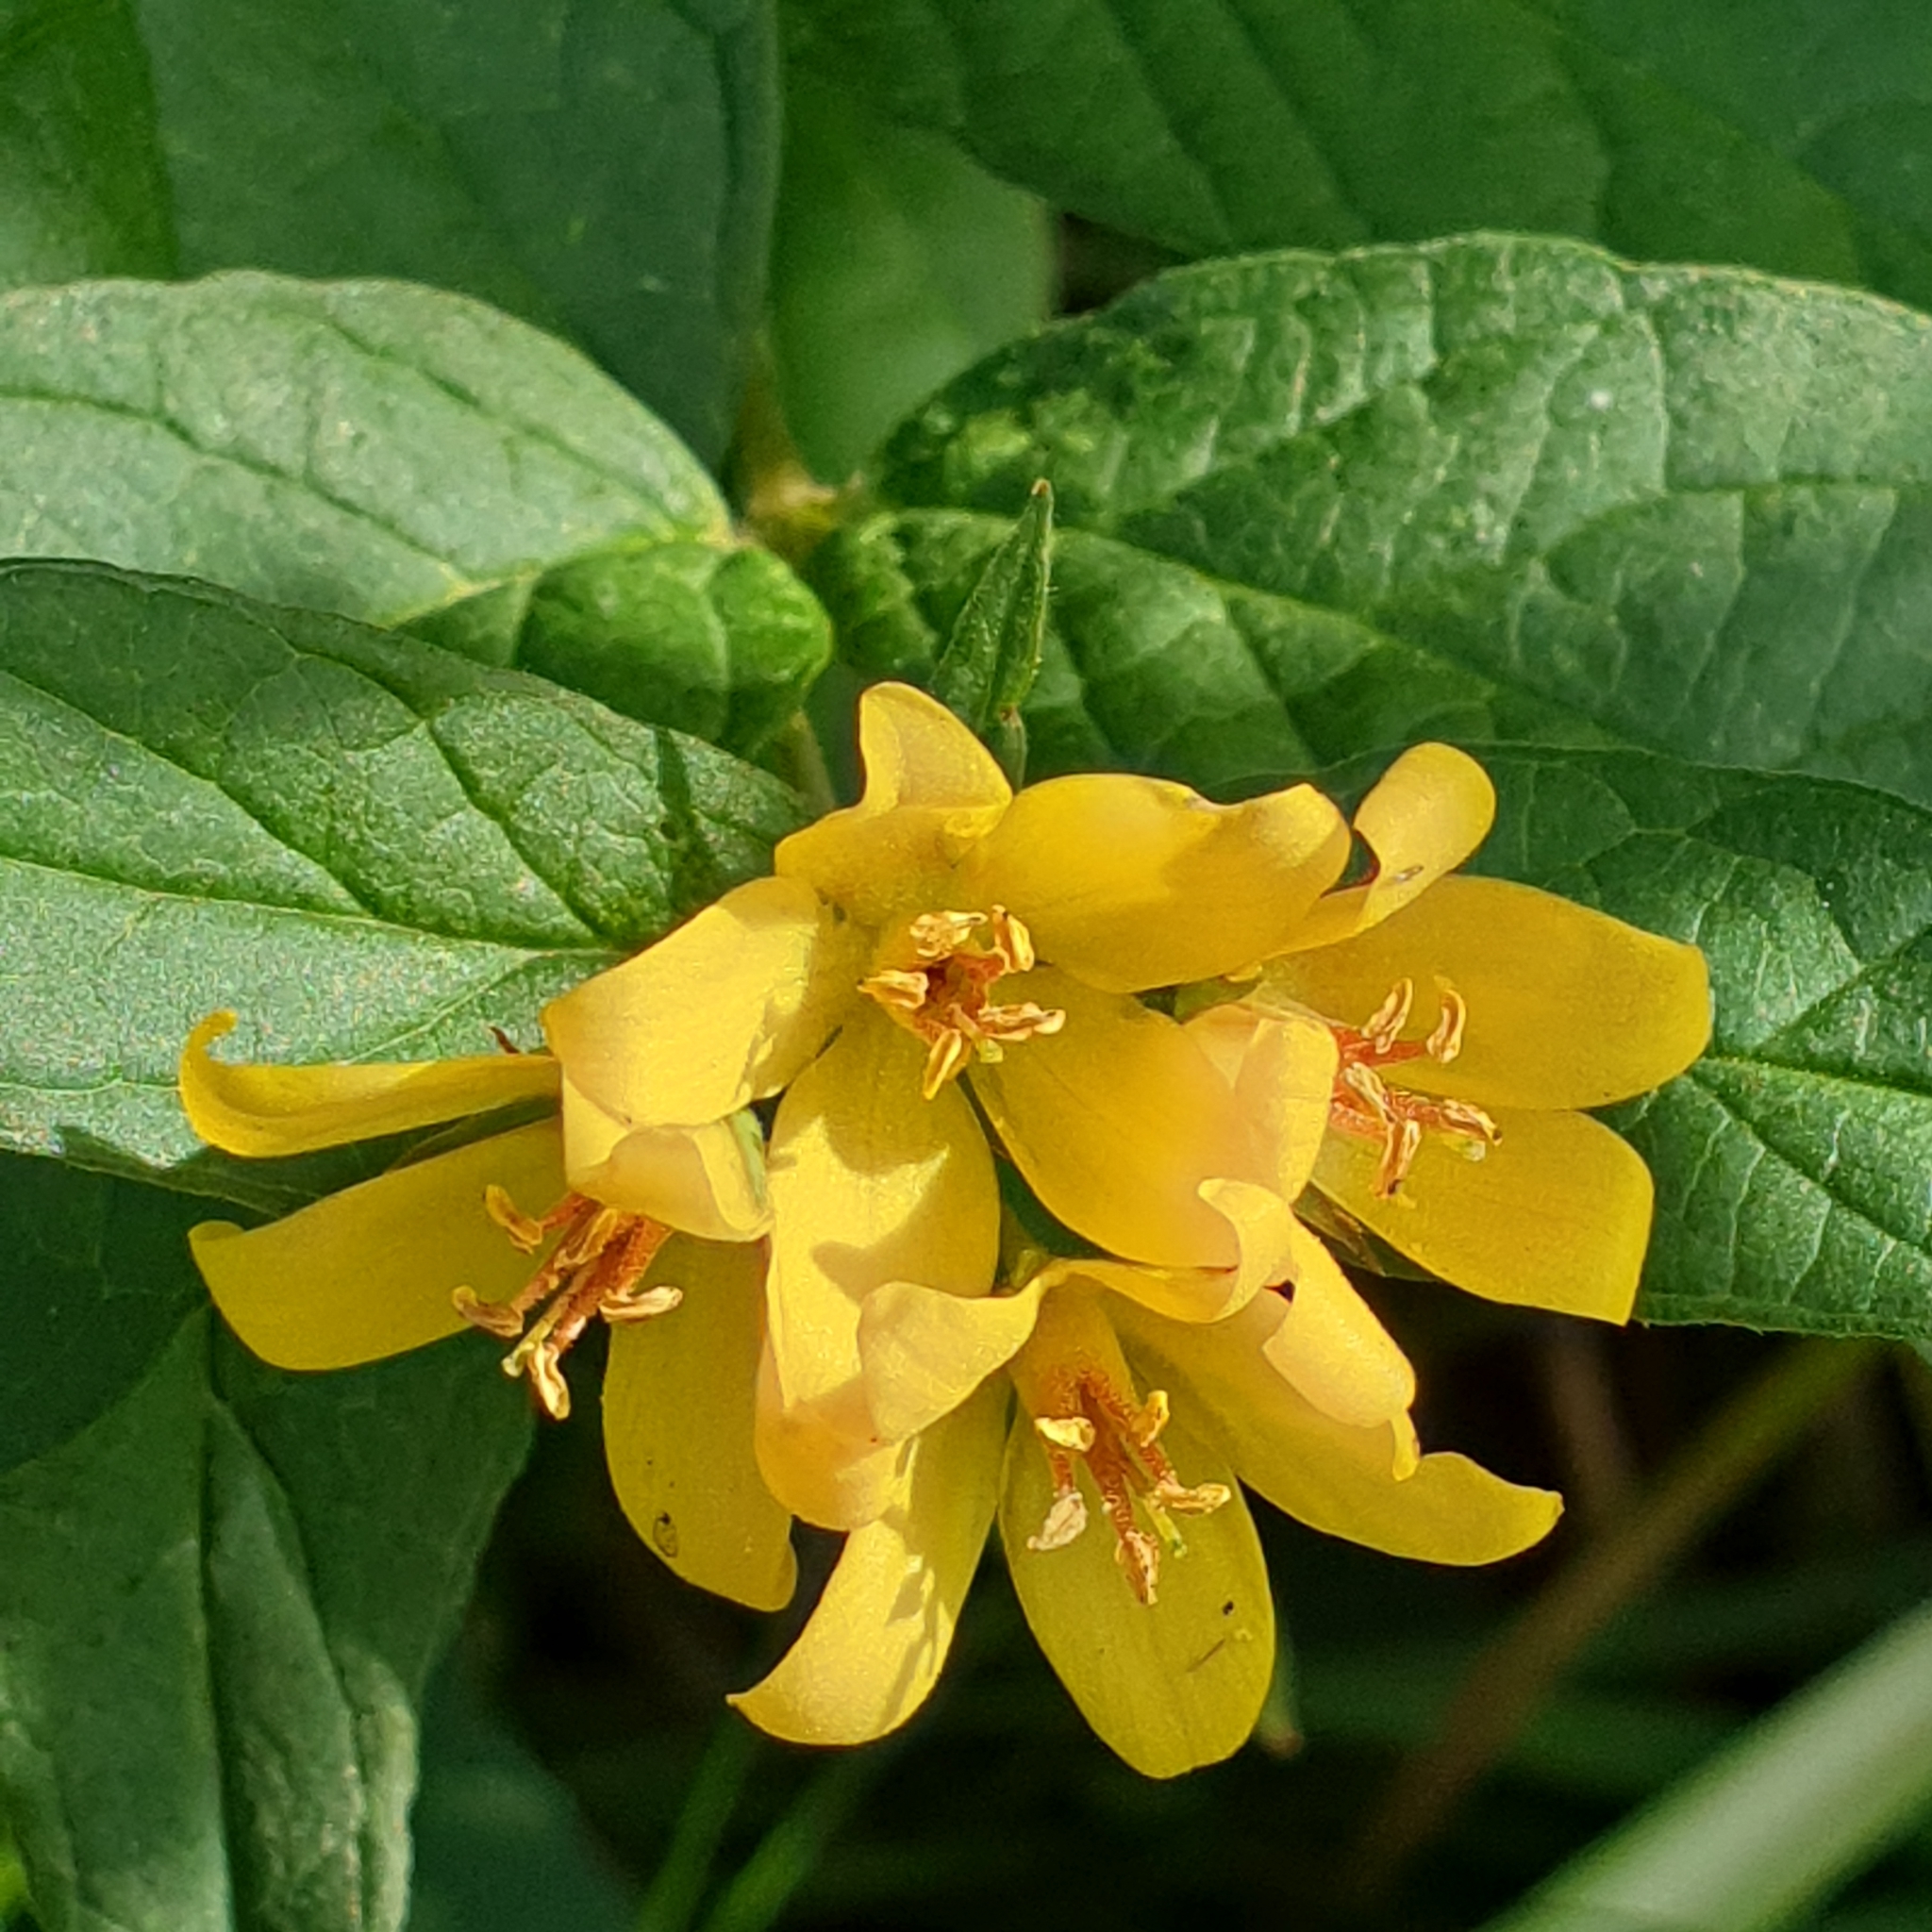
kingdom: Plantae
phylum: Tracheophyta
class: Magnoliopsida
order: Ericales
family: Primulaceae
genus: Lysimachia
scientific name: Lysimachia vulgaris
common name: Yellow loosestrife
